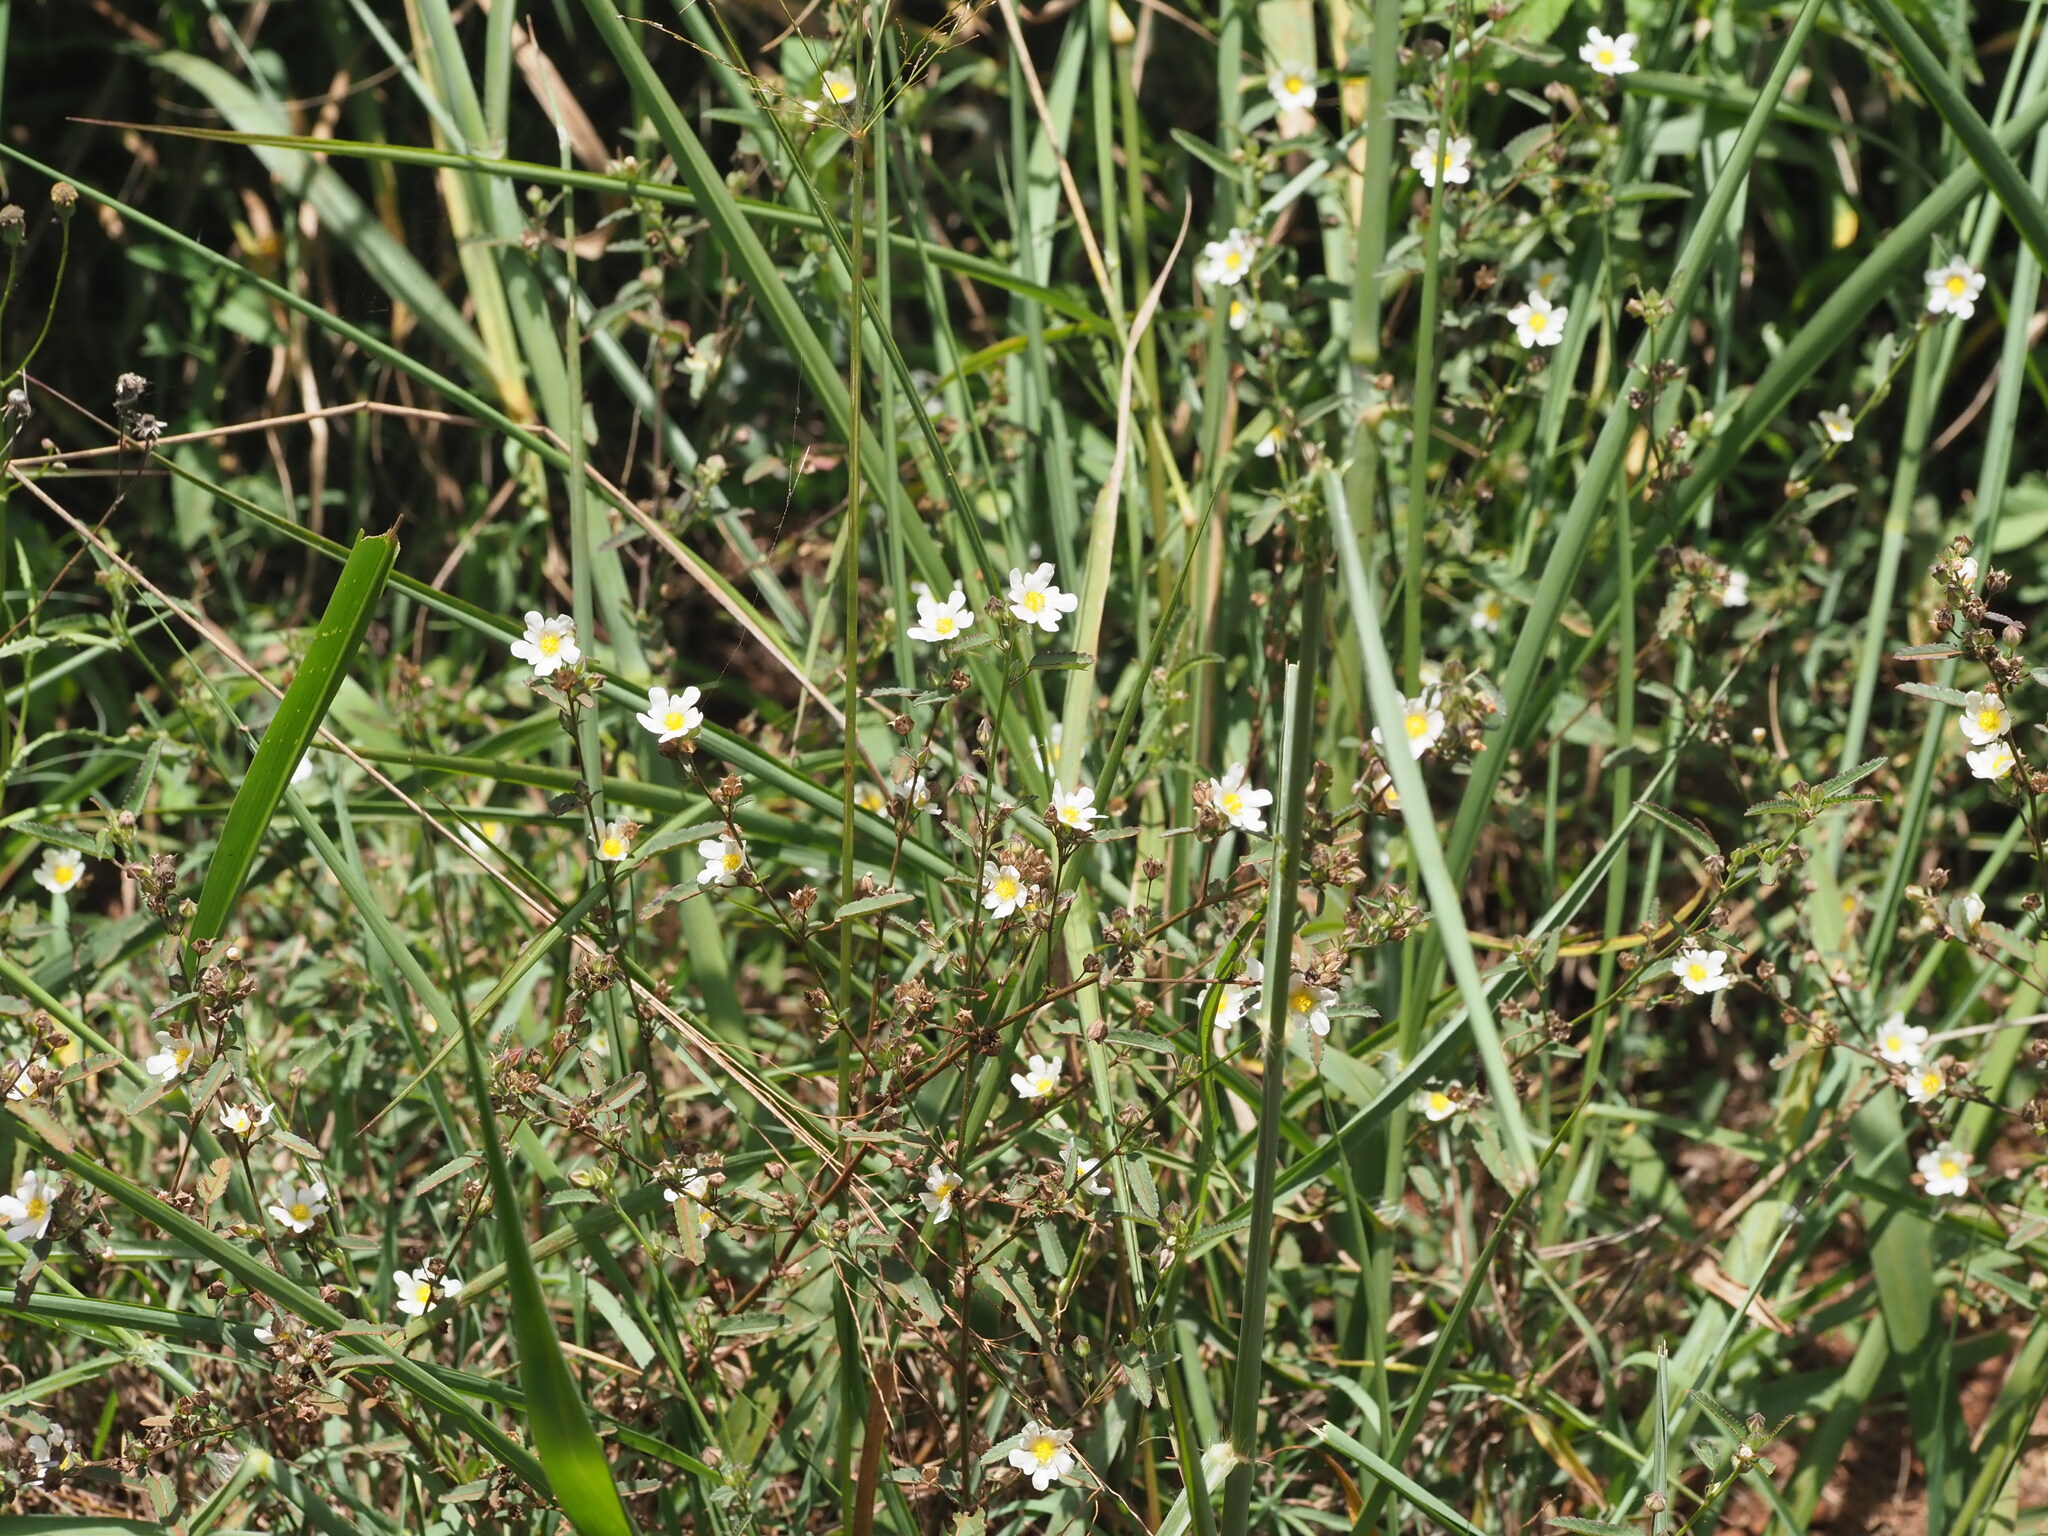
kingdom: Plantae
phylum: Tracheophyta
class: Magnoliopsida
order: Malvales
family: Malvaceae
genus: Sida
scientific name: Sida rhombifolia
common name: Queensland-hemp
